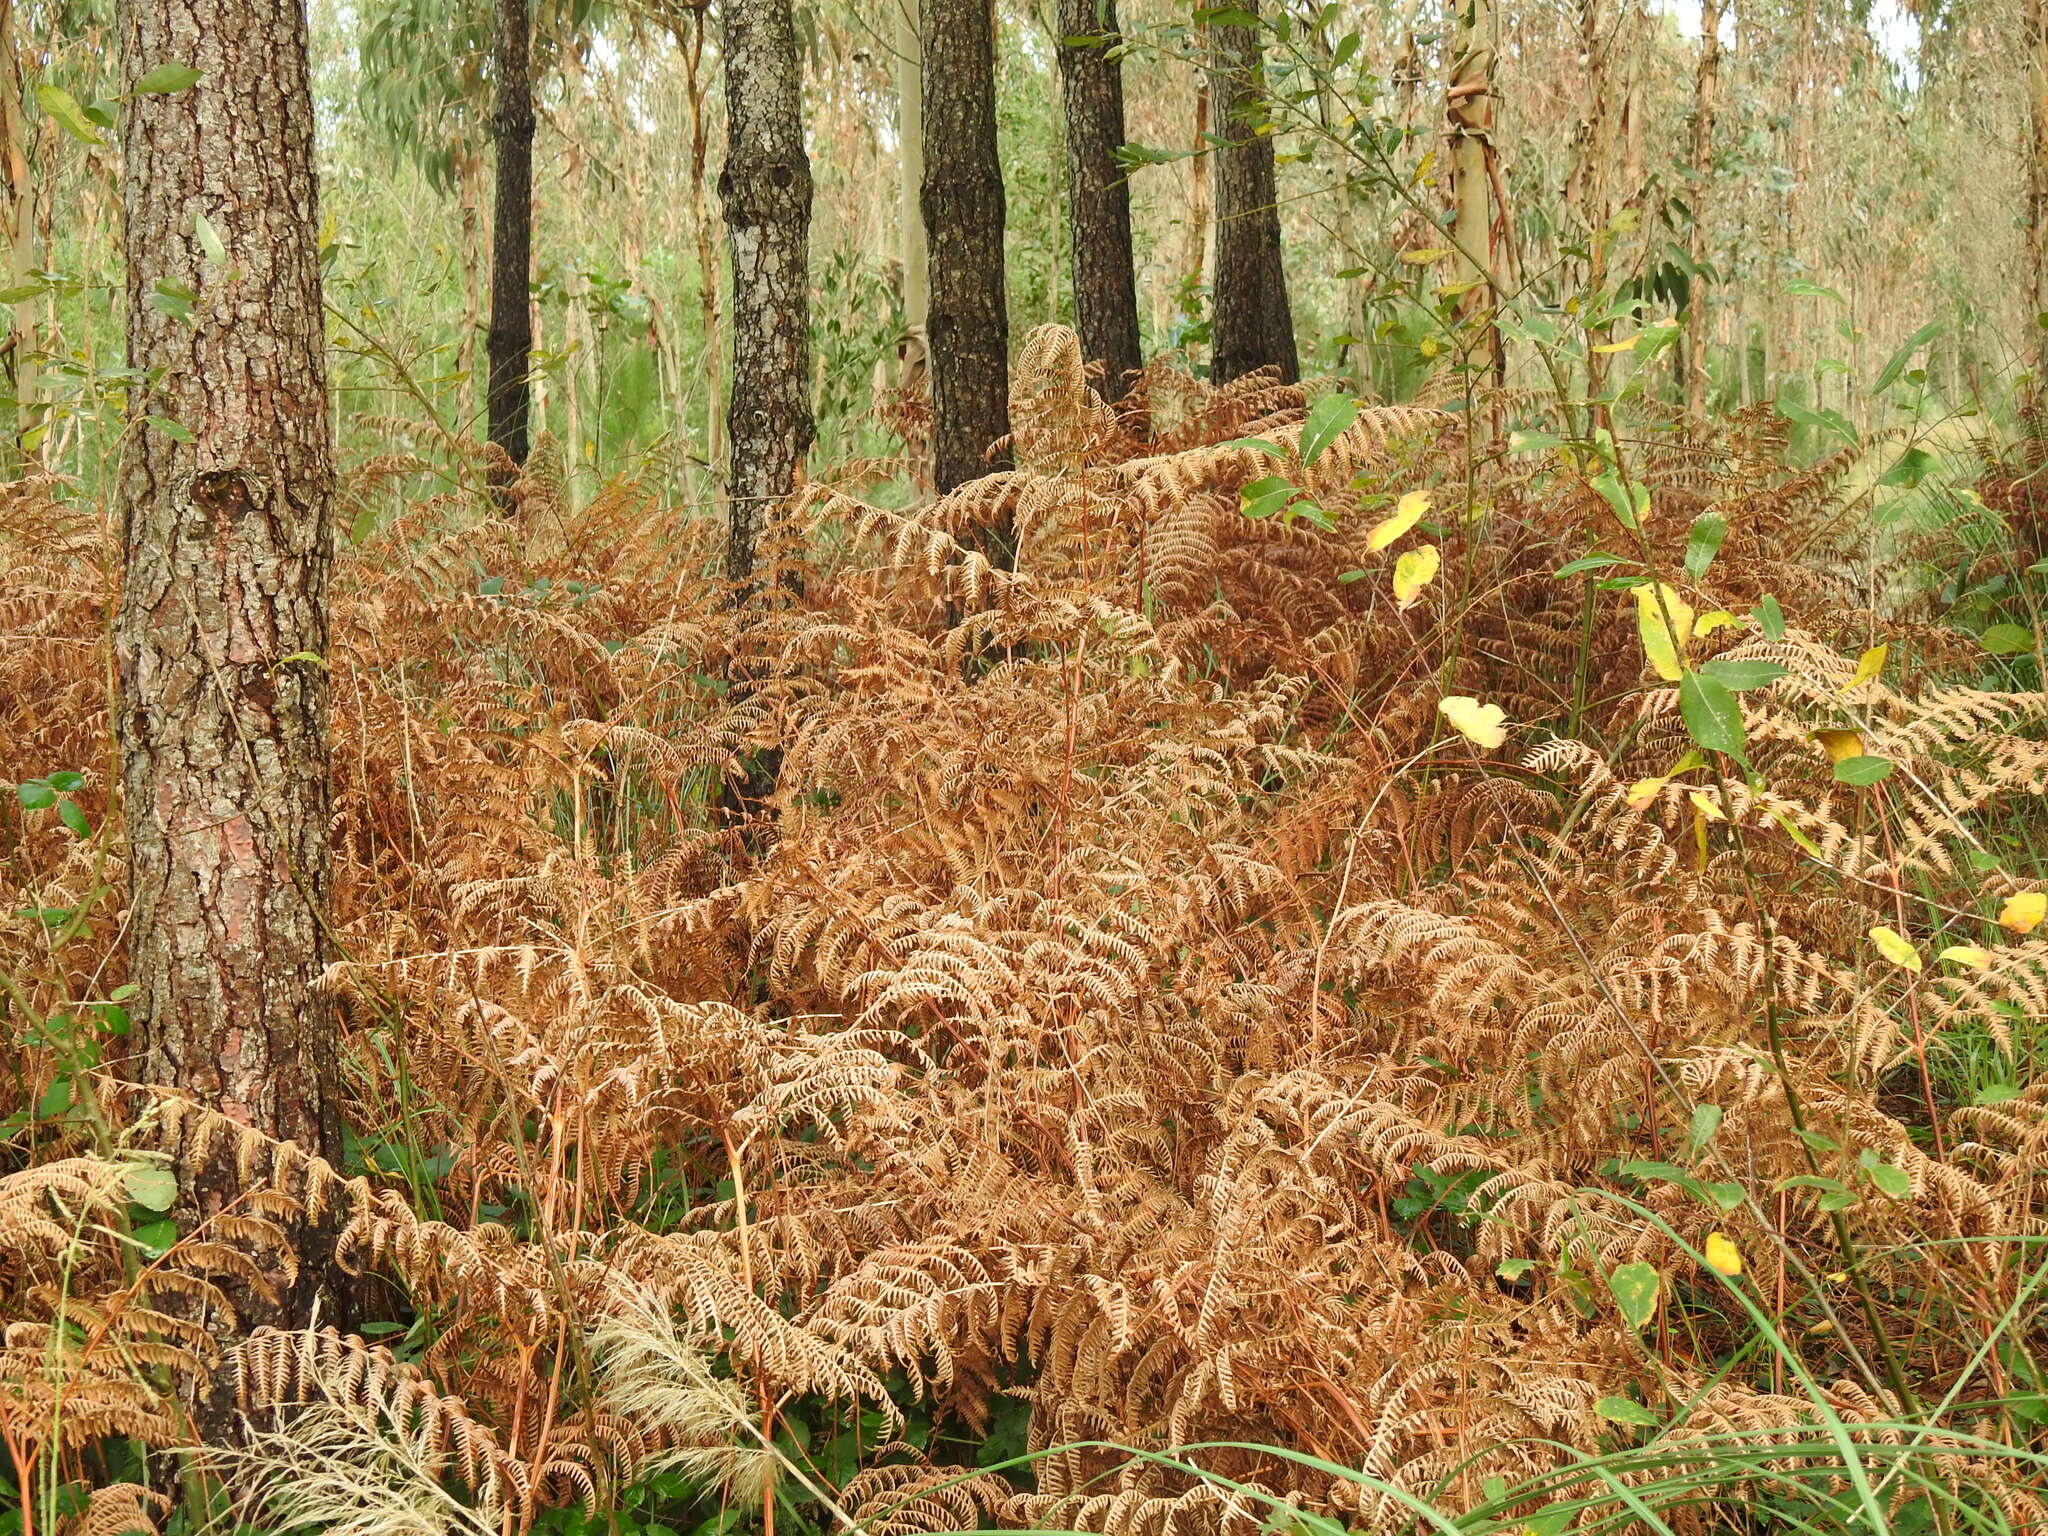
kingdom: Plantae
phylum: Tracheophyta
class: Polypodiopsida
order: Polypodiales
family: Dennstaedtiaceae
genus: Pteridium
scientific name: Pteridium aquilinum
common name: Bracken
